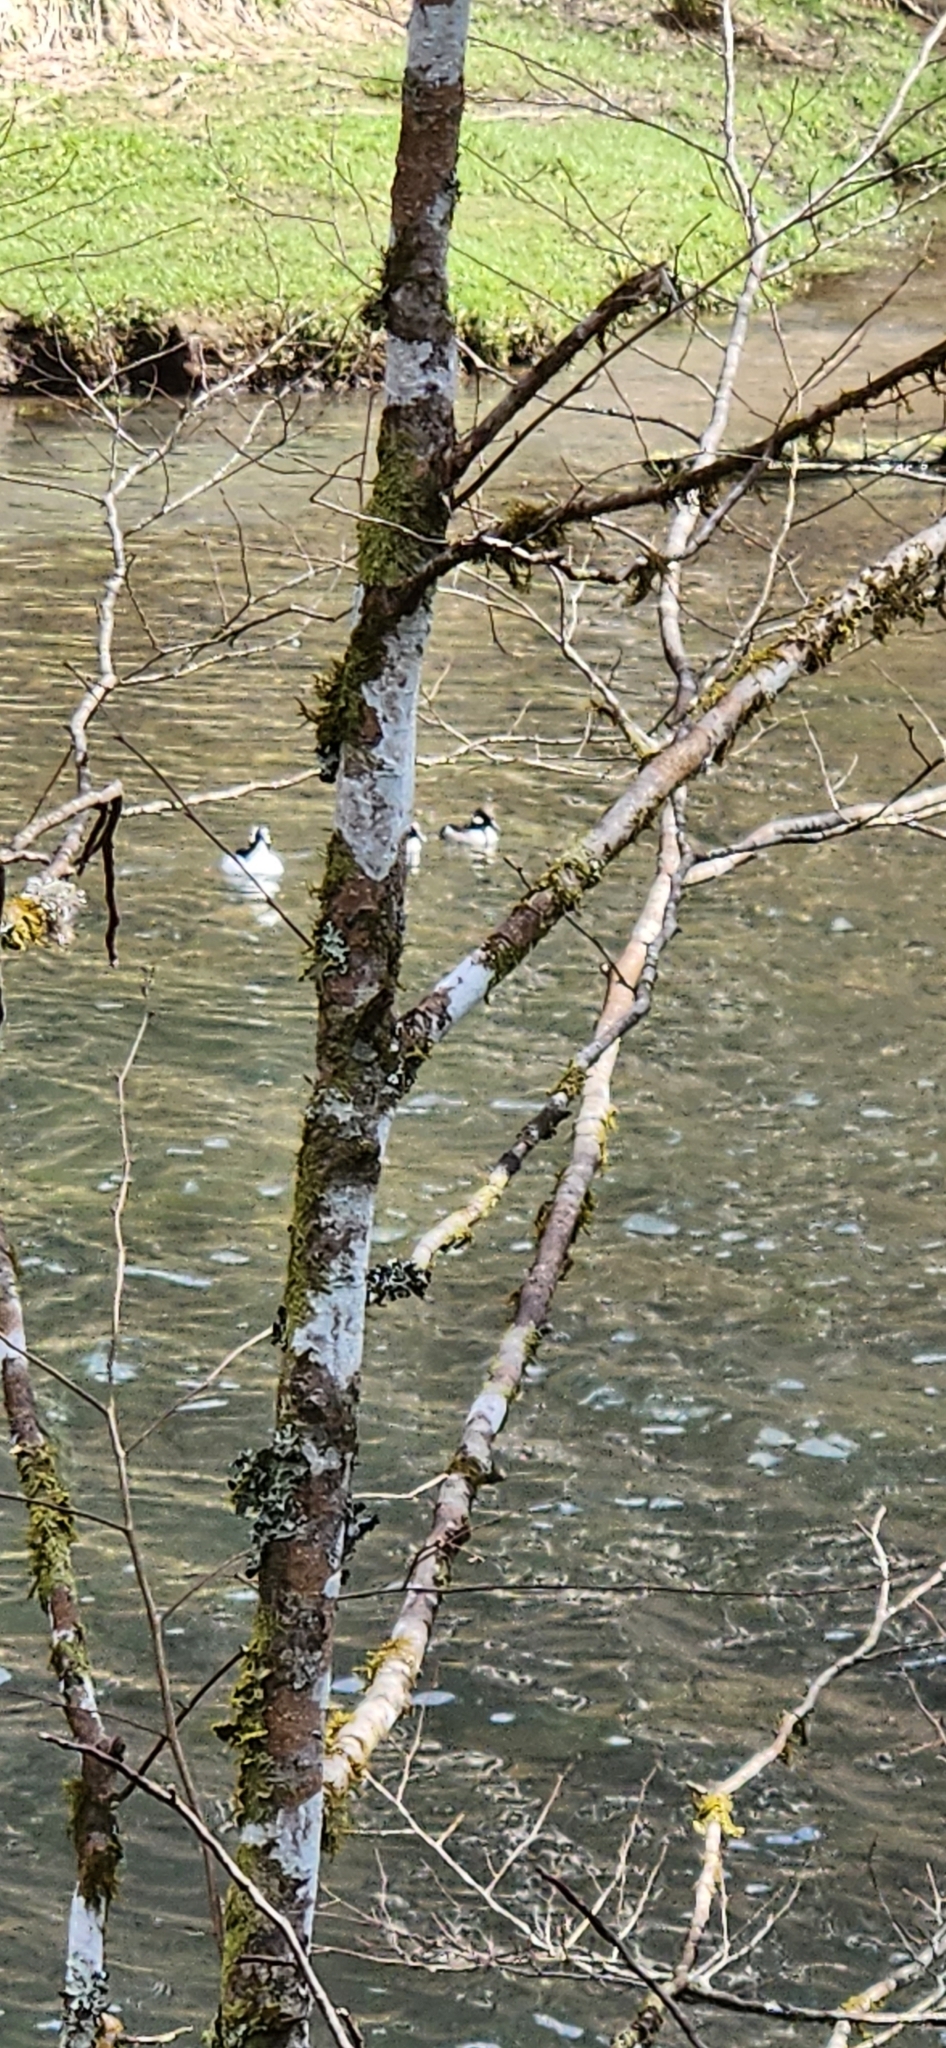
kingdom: Animalia
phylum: Chordata
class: Aves
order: Anseriformes
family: Anatidae
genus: Bucephala
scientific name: Bucephala albeola
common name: Bufflehead
